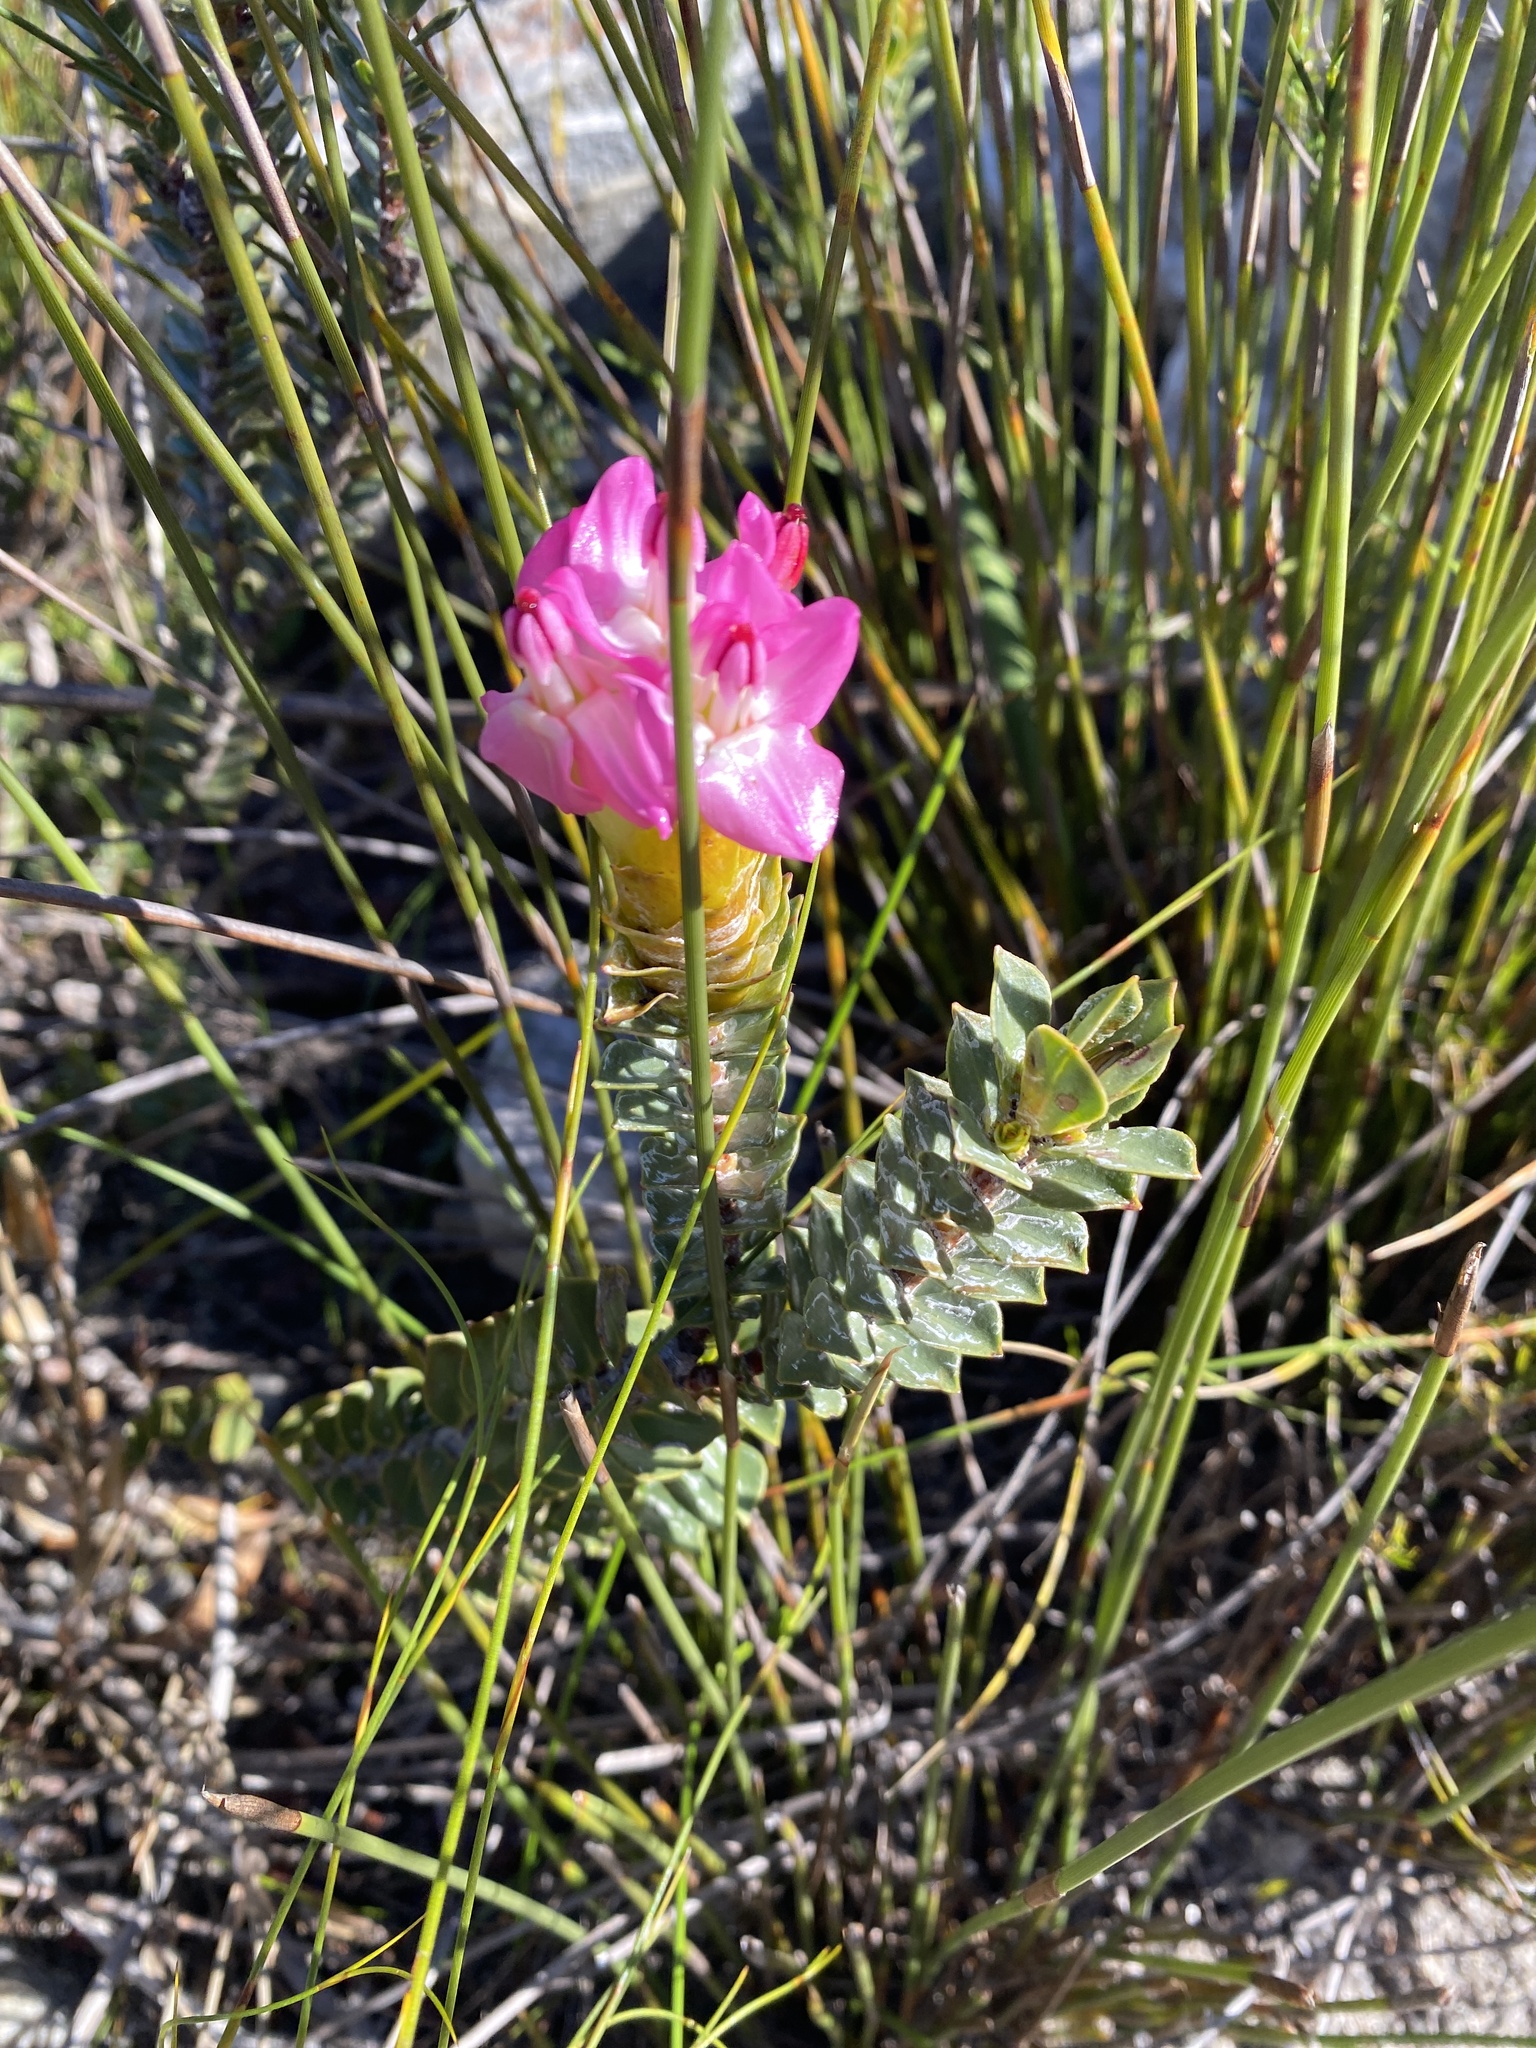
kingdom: Plantae
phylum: Tracheophyta
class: Magnoliopsida
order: Myrtales
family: Penaeaceae
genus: Saltera
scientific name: Saltera sarcocolla
